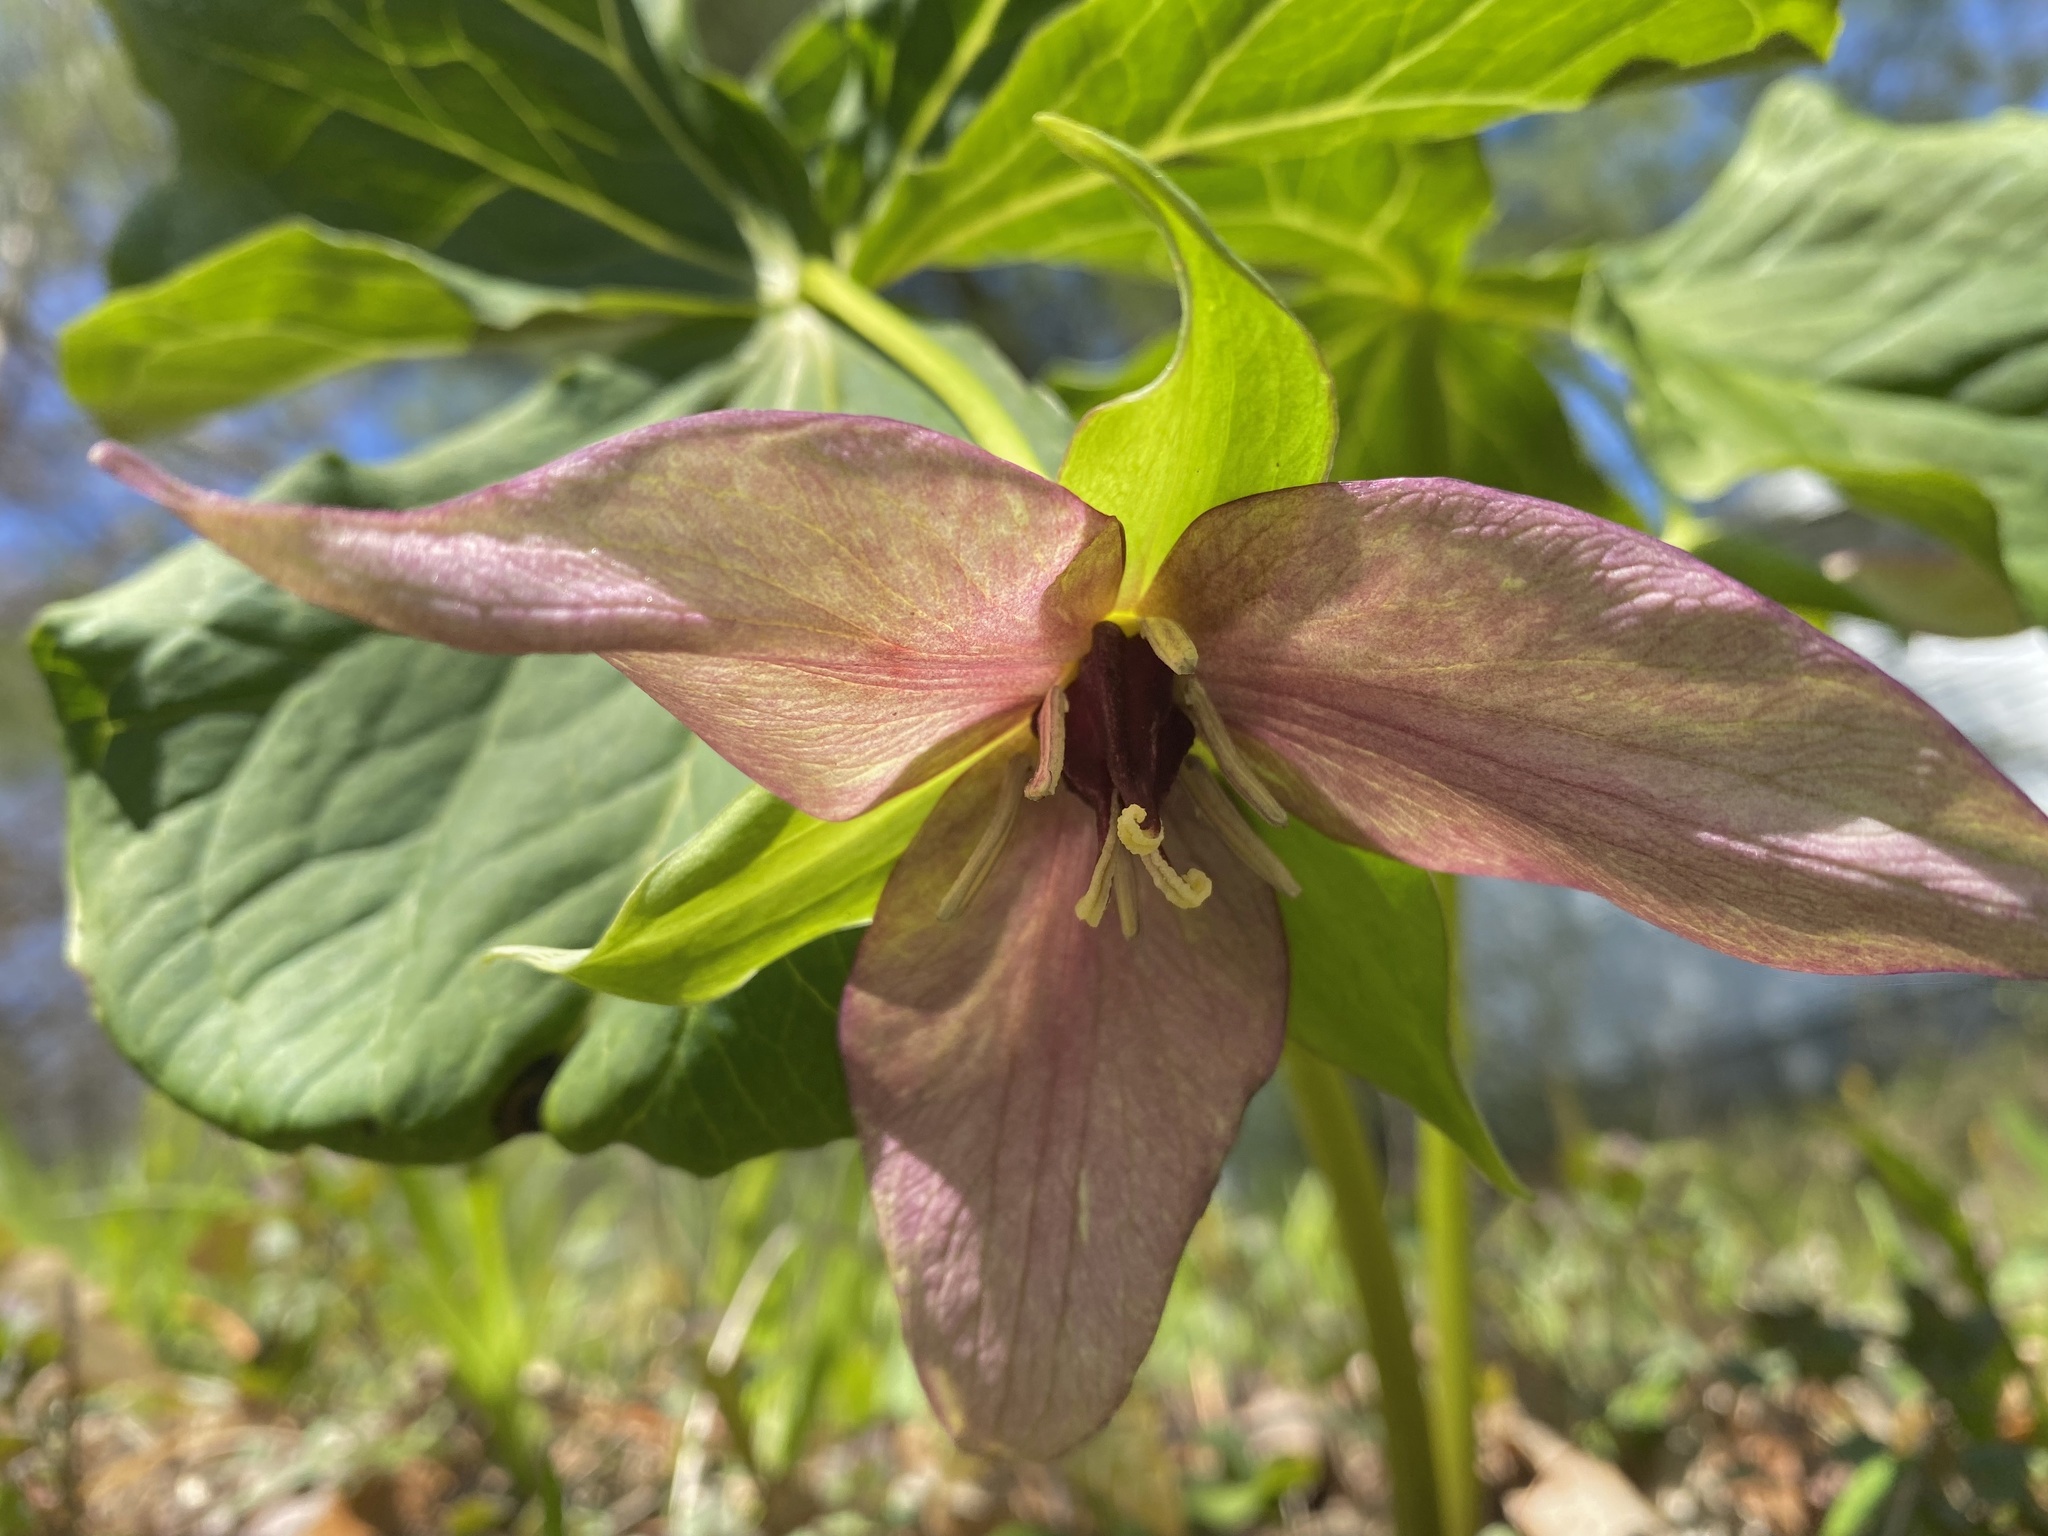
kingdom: Plantae
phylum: Tracheophyta
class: Liliopsida
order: Liliales
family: Melanthiaceae
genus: Trillium
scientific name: Trillium erectum
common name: Purple trillium
